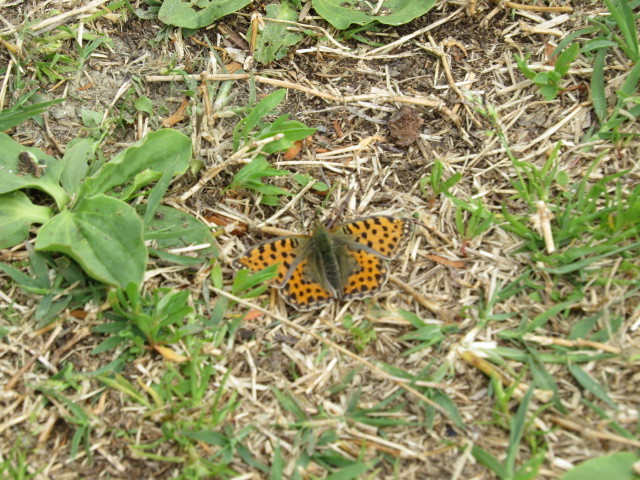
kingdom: Animalia
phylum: Arthropoda
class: Insecta
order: Lepidoptera
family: Nymphalidae
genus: Issoria
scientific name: Issoria lathonia
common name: Queen of spain fritillary
